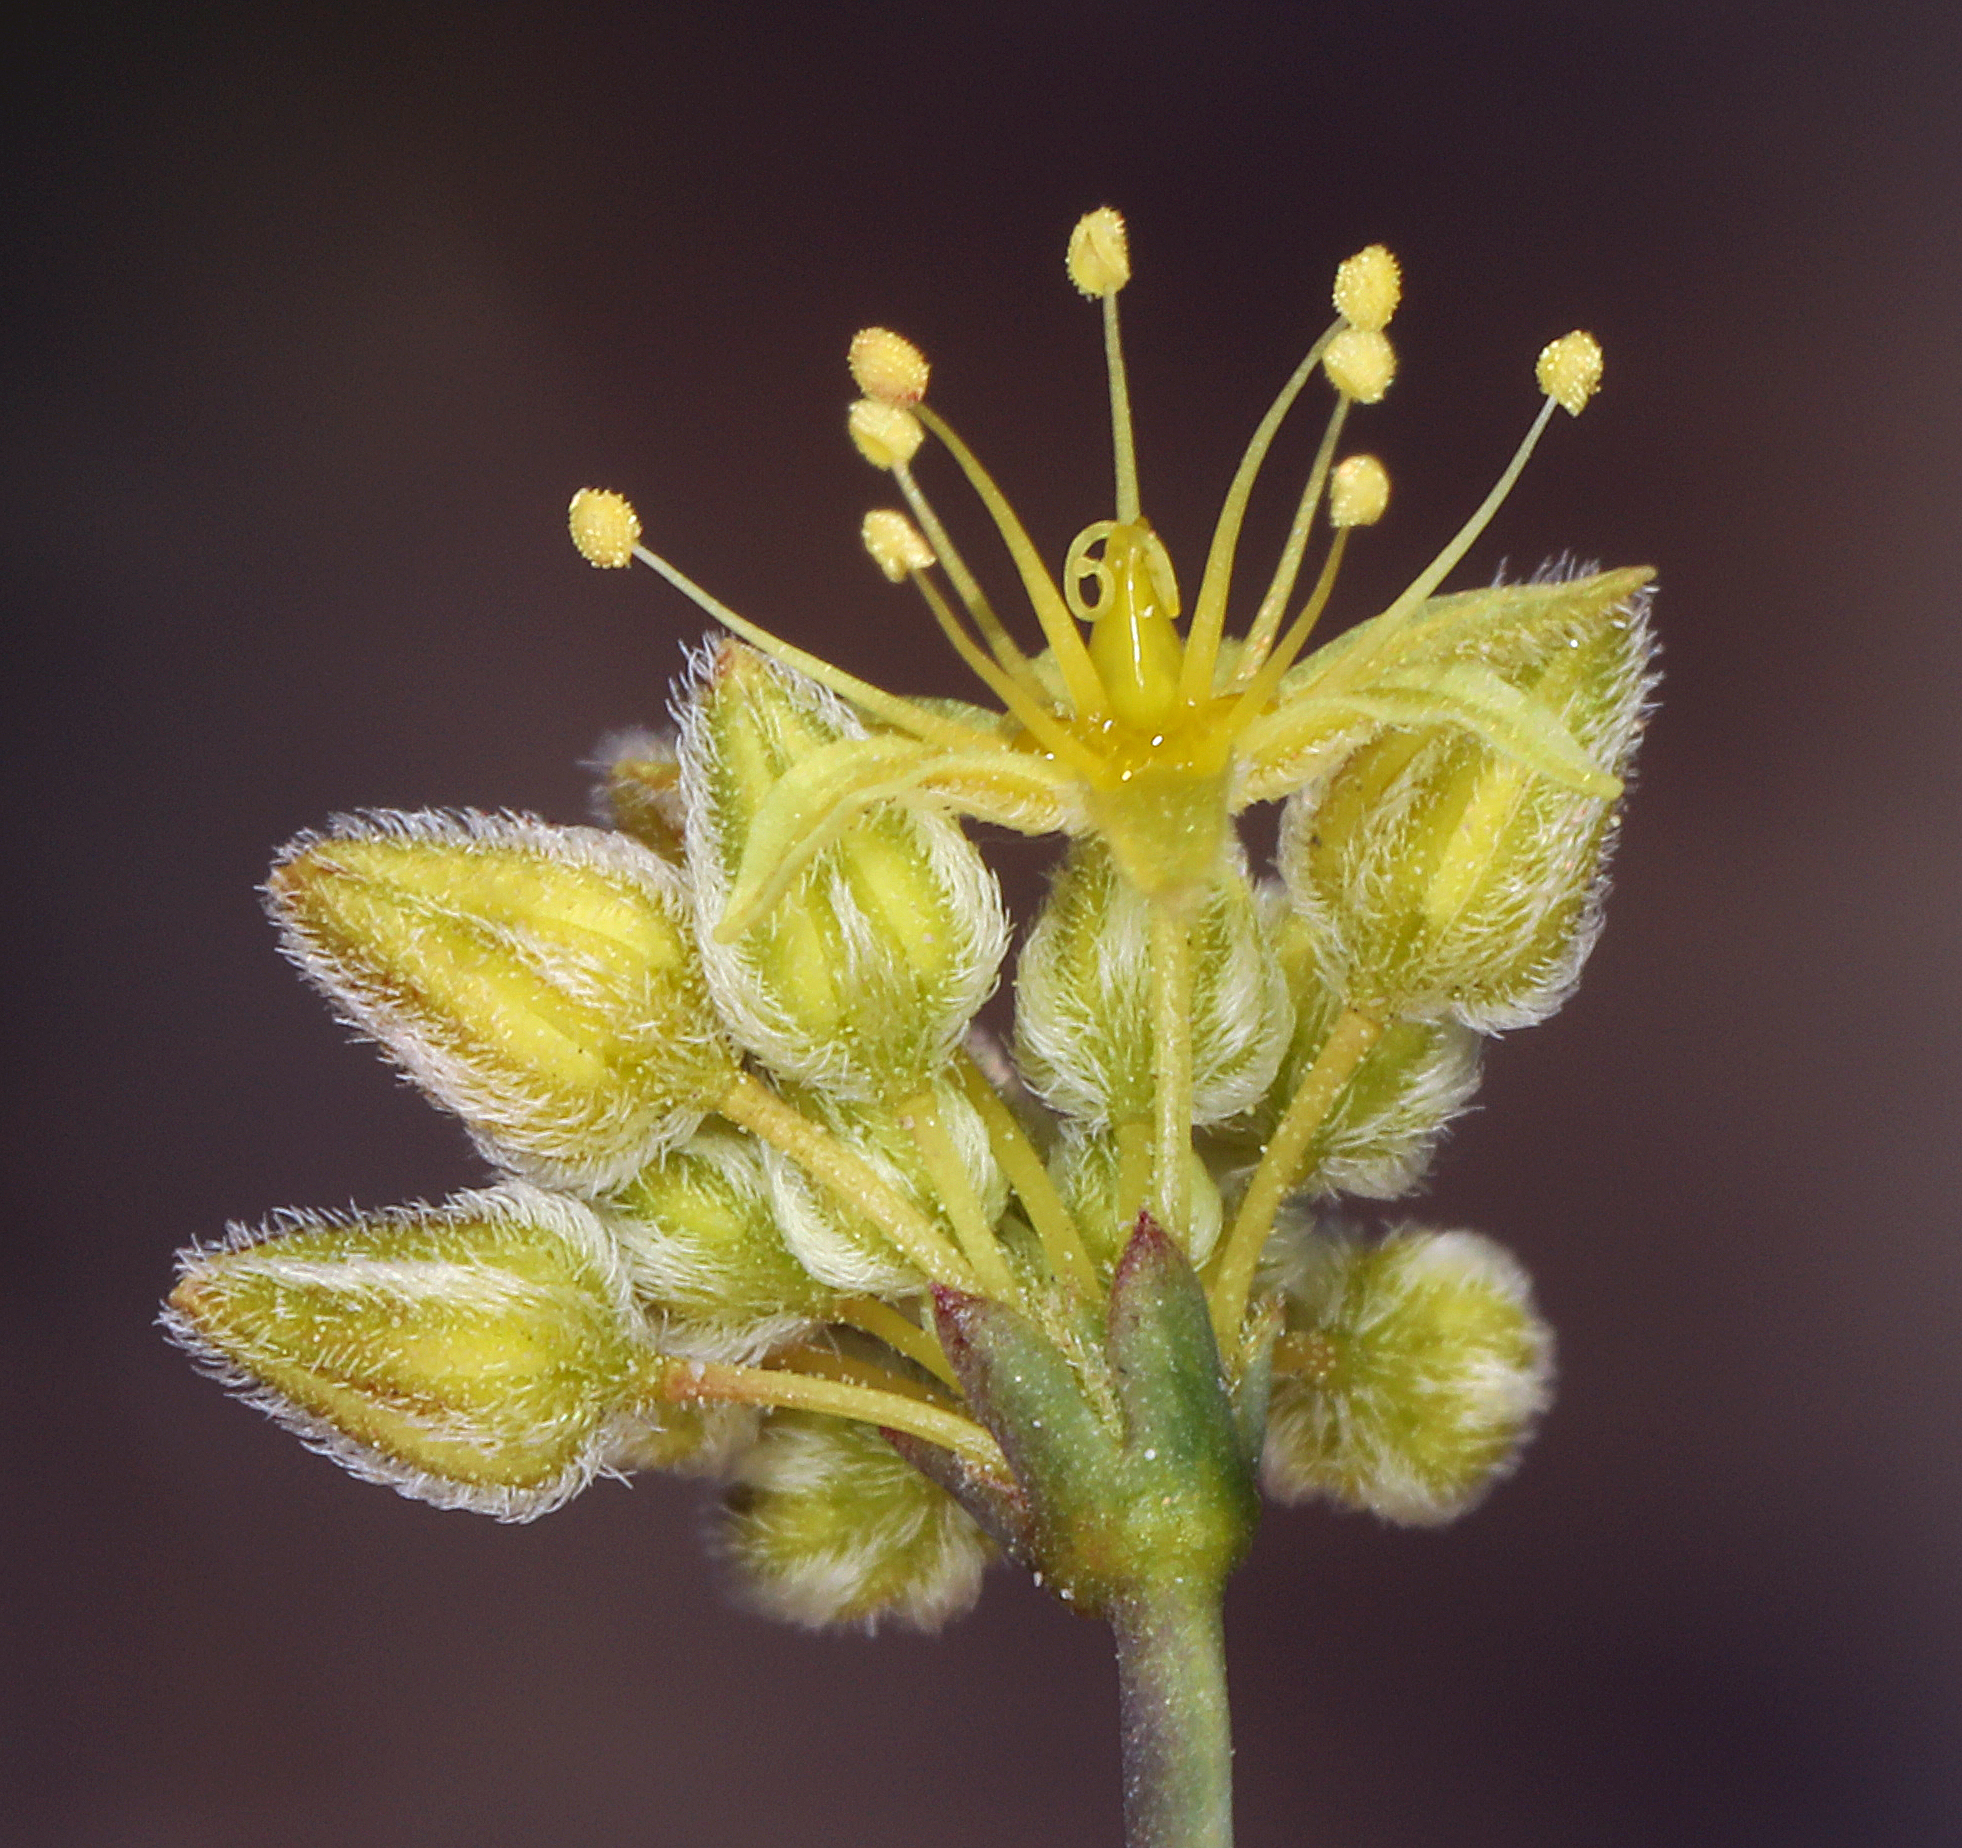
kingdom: Plantae
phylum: Tracheophyta
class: Magnoliopsida
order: Caryophyllales
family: Polygonaceae
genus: Eriogonum
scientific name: Eriogonum inflatum
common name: Desert trumpet
